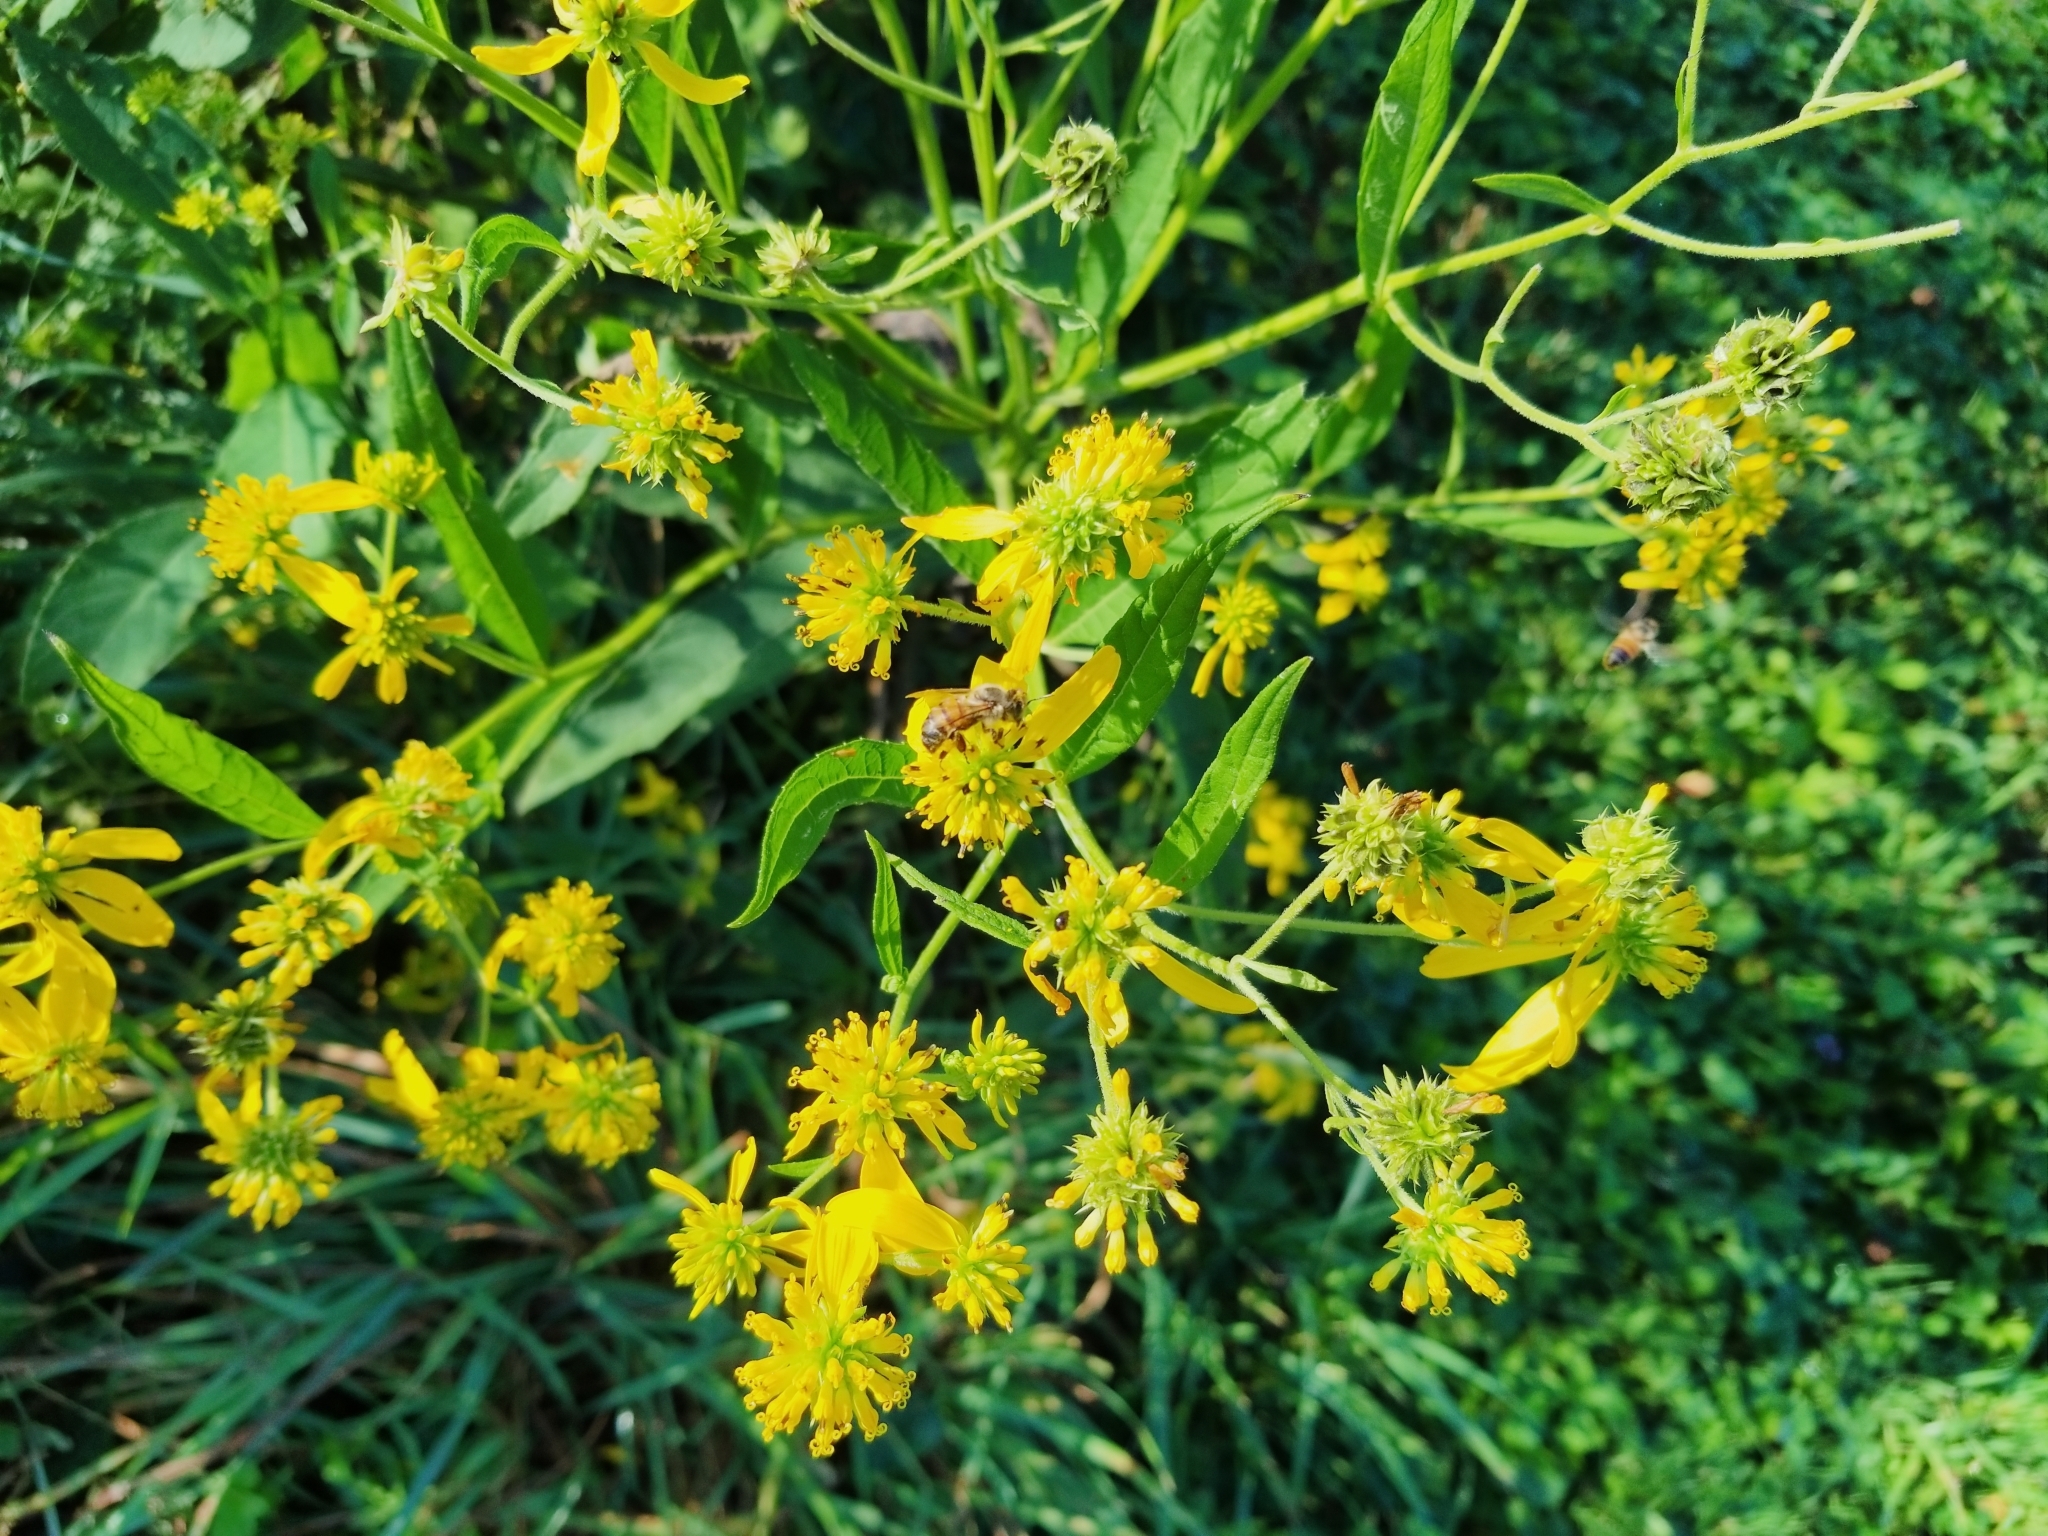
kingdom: Plantae
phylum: Tracheophyta
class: Magnoliopsida
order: Asterales
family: Asteraceae
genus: Verbesina
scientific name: Verbesina alternifolia
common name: Wingstem
